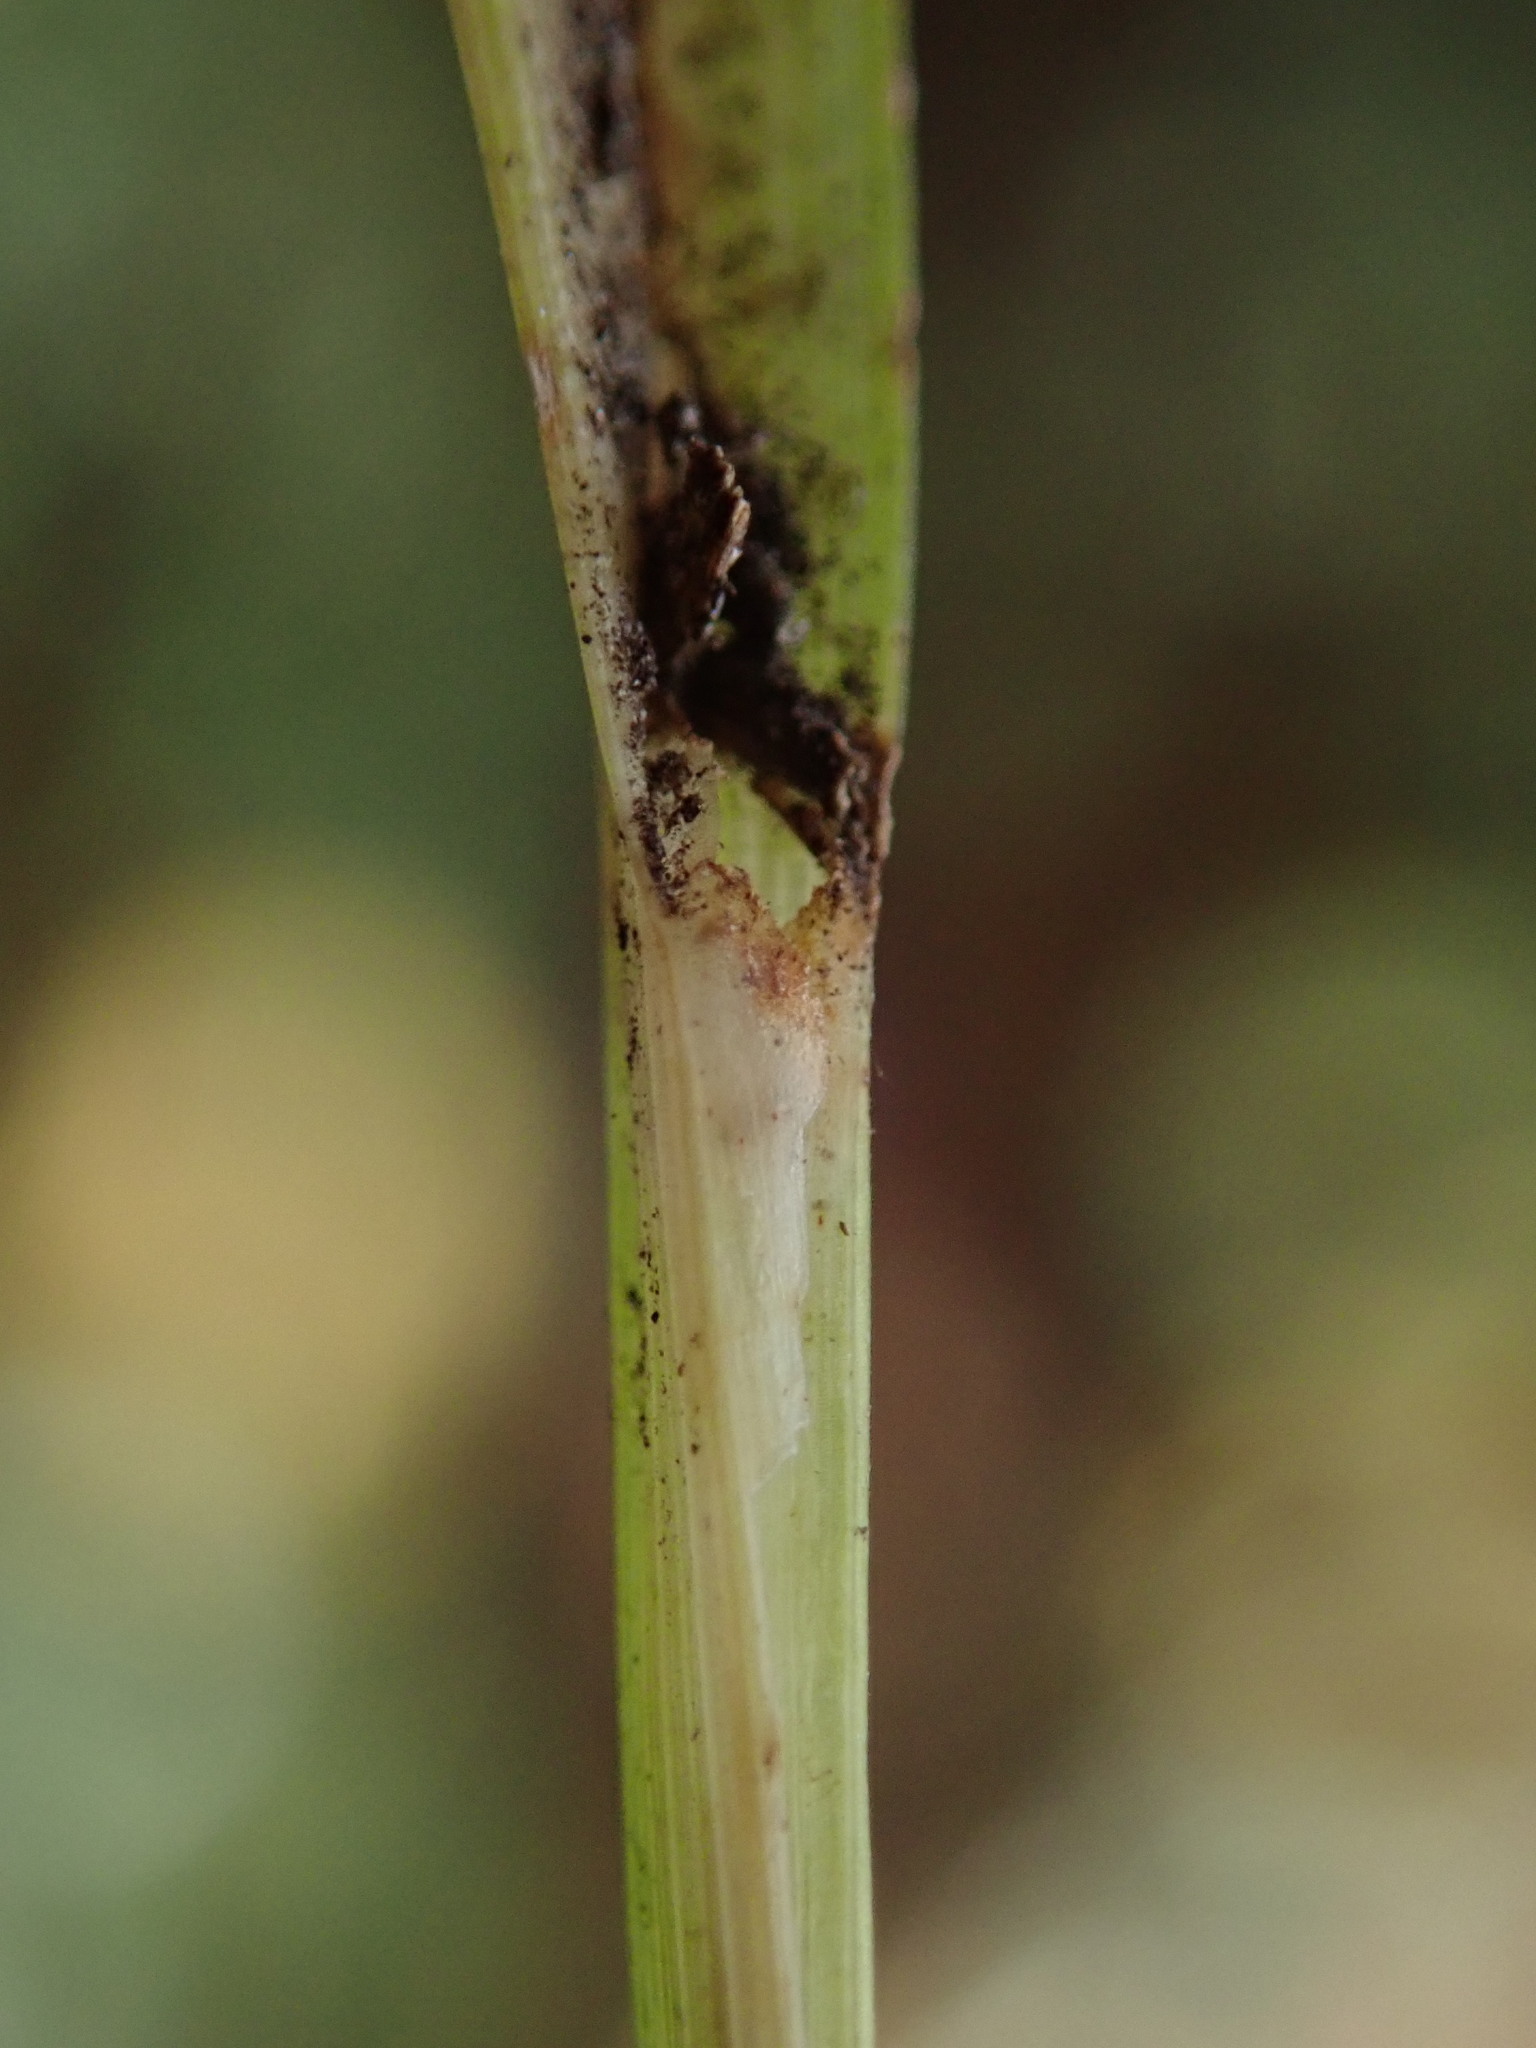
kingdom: Plantae
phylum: Tracheophyta
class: Liliopsida
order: Poales
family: Cyperaceae
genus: Carex
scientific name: Carex sylvatica
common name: Wood-sedge
